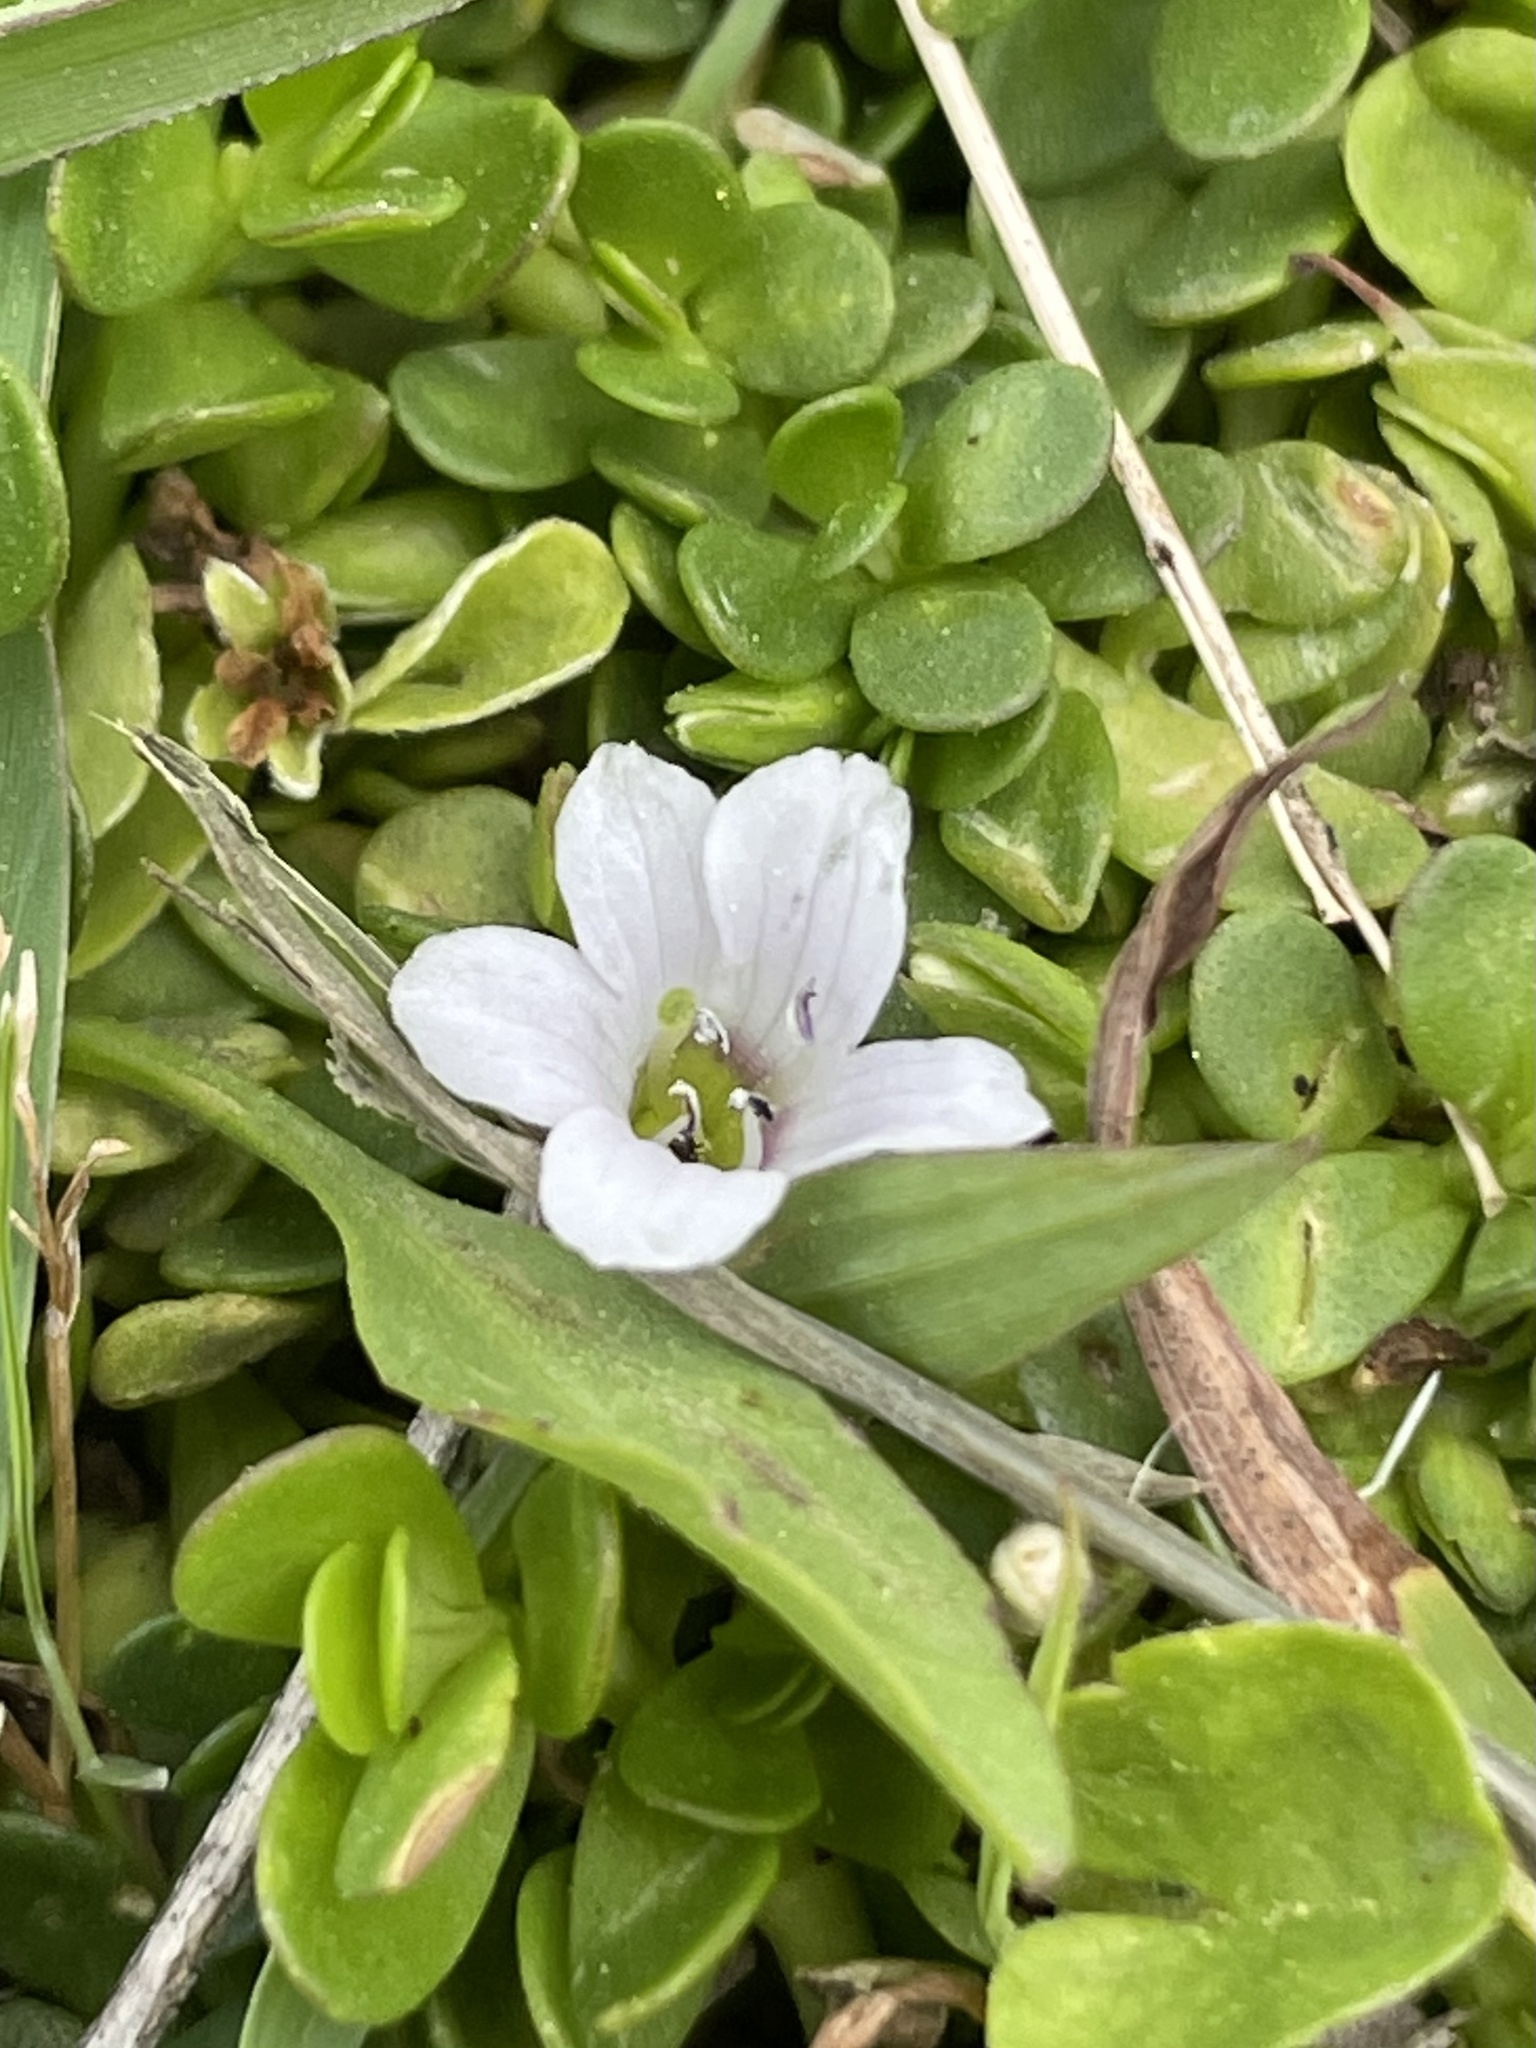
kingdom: Plantae
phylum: Tracheophyta
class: Magnoliopsida
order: Lamiales
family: Plantaginaceae
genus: Bacopa
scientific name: Bacopa monnieri
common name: Indian-pennywort
